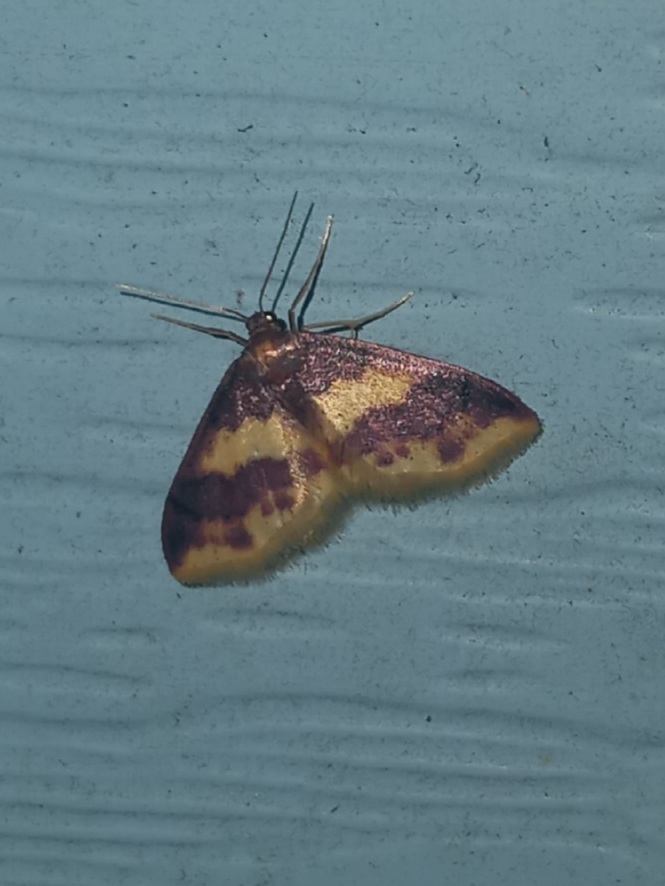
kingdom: Animalia
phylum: Arthropoda
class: Insecta
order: Lepidoptera
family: Geometridae
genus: Lophosis
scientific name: Lophosis labeculata
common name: Stained lophosis moth
